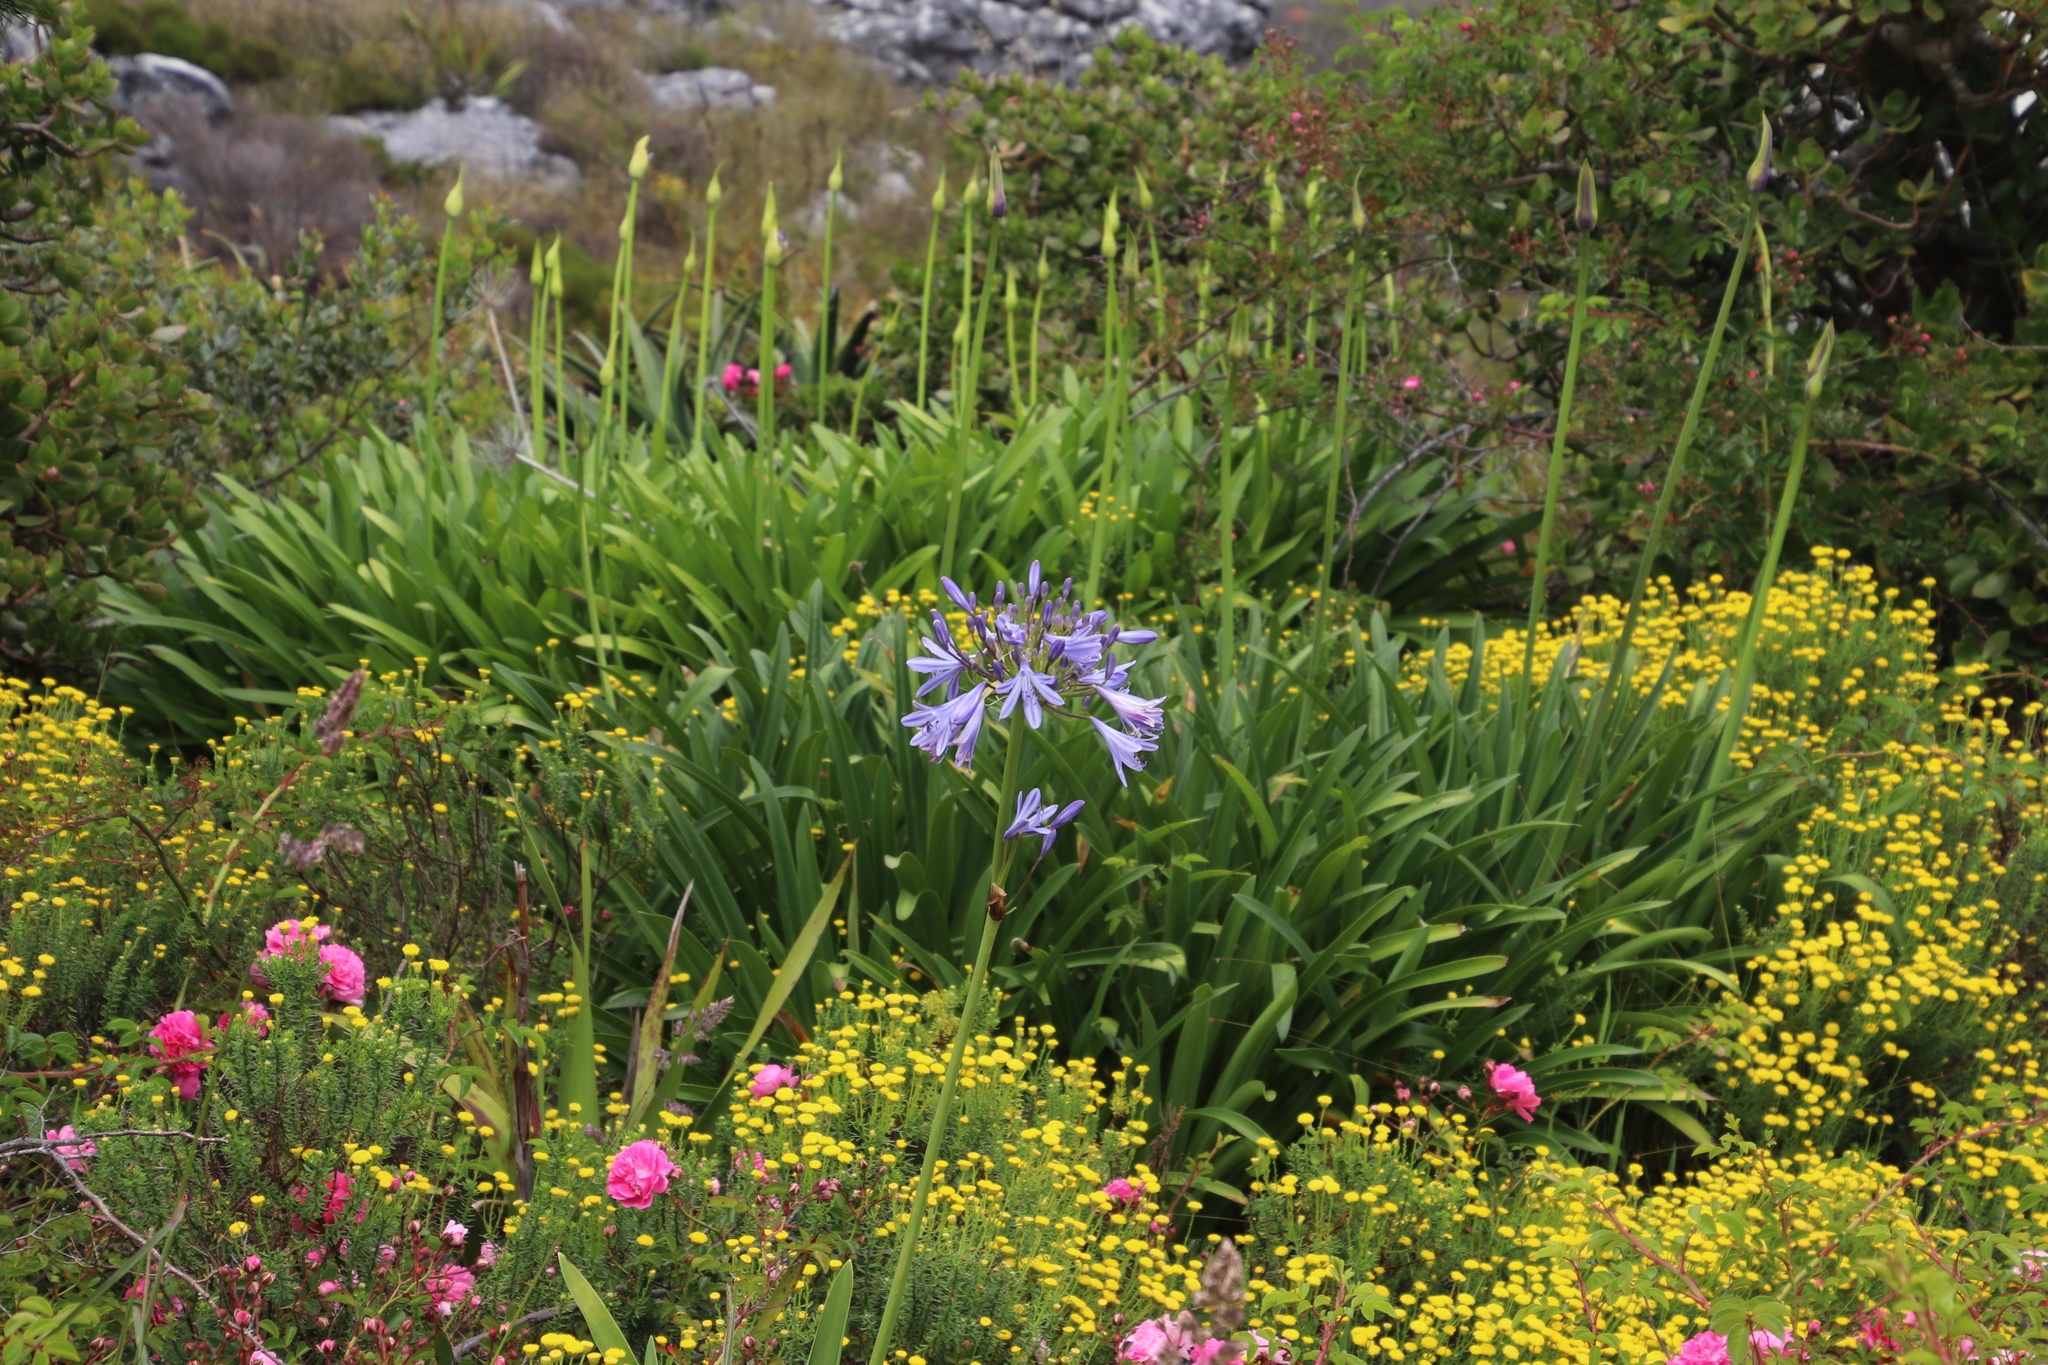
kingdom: Plantae
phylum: Tracheophyta
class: Liliopsida
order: Asparagales
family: Amaryllidaceae
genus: Agapanthus
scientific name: Agapanthus praecox
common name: African-lily
